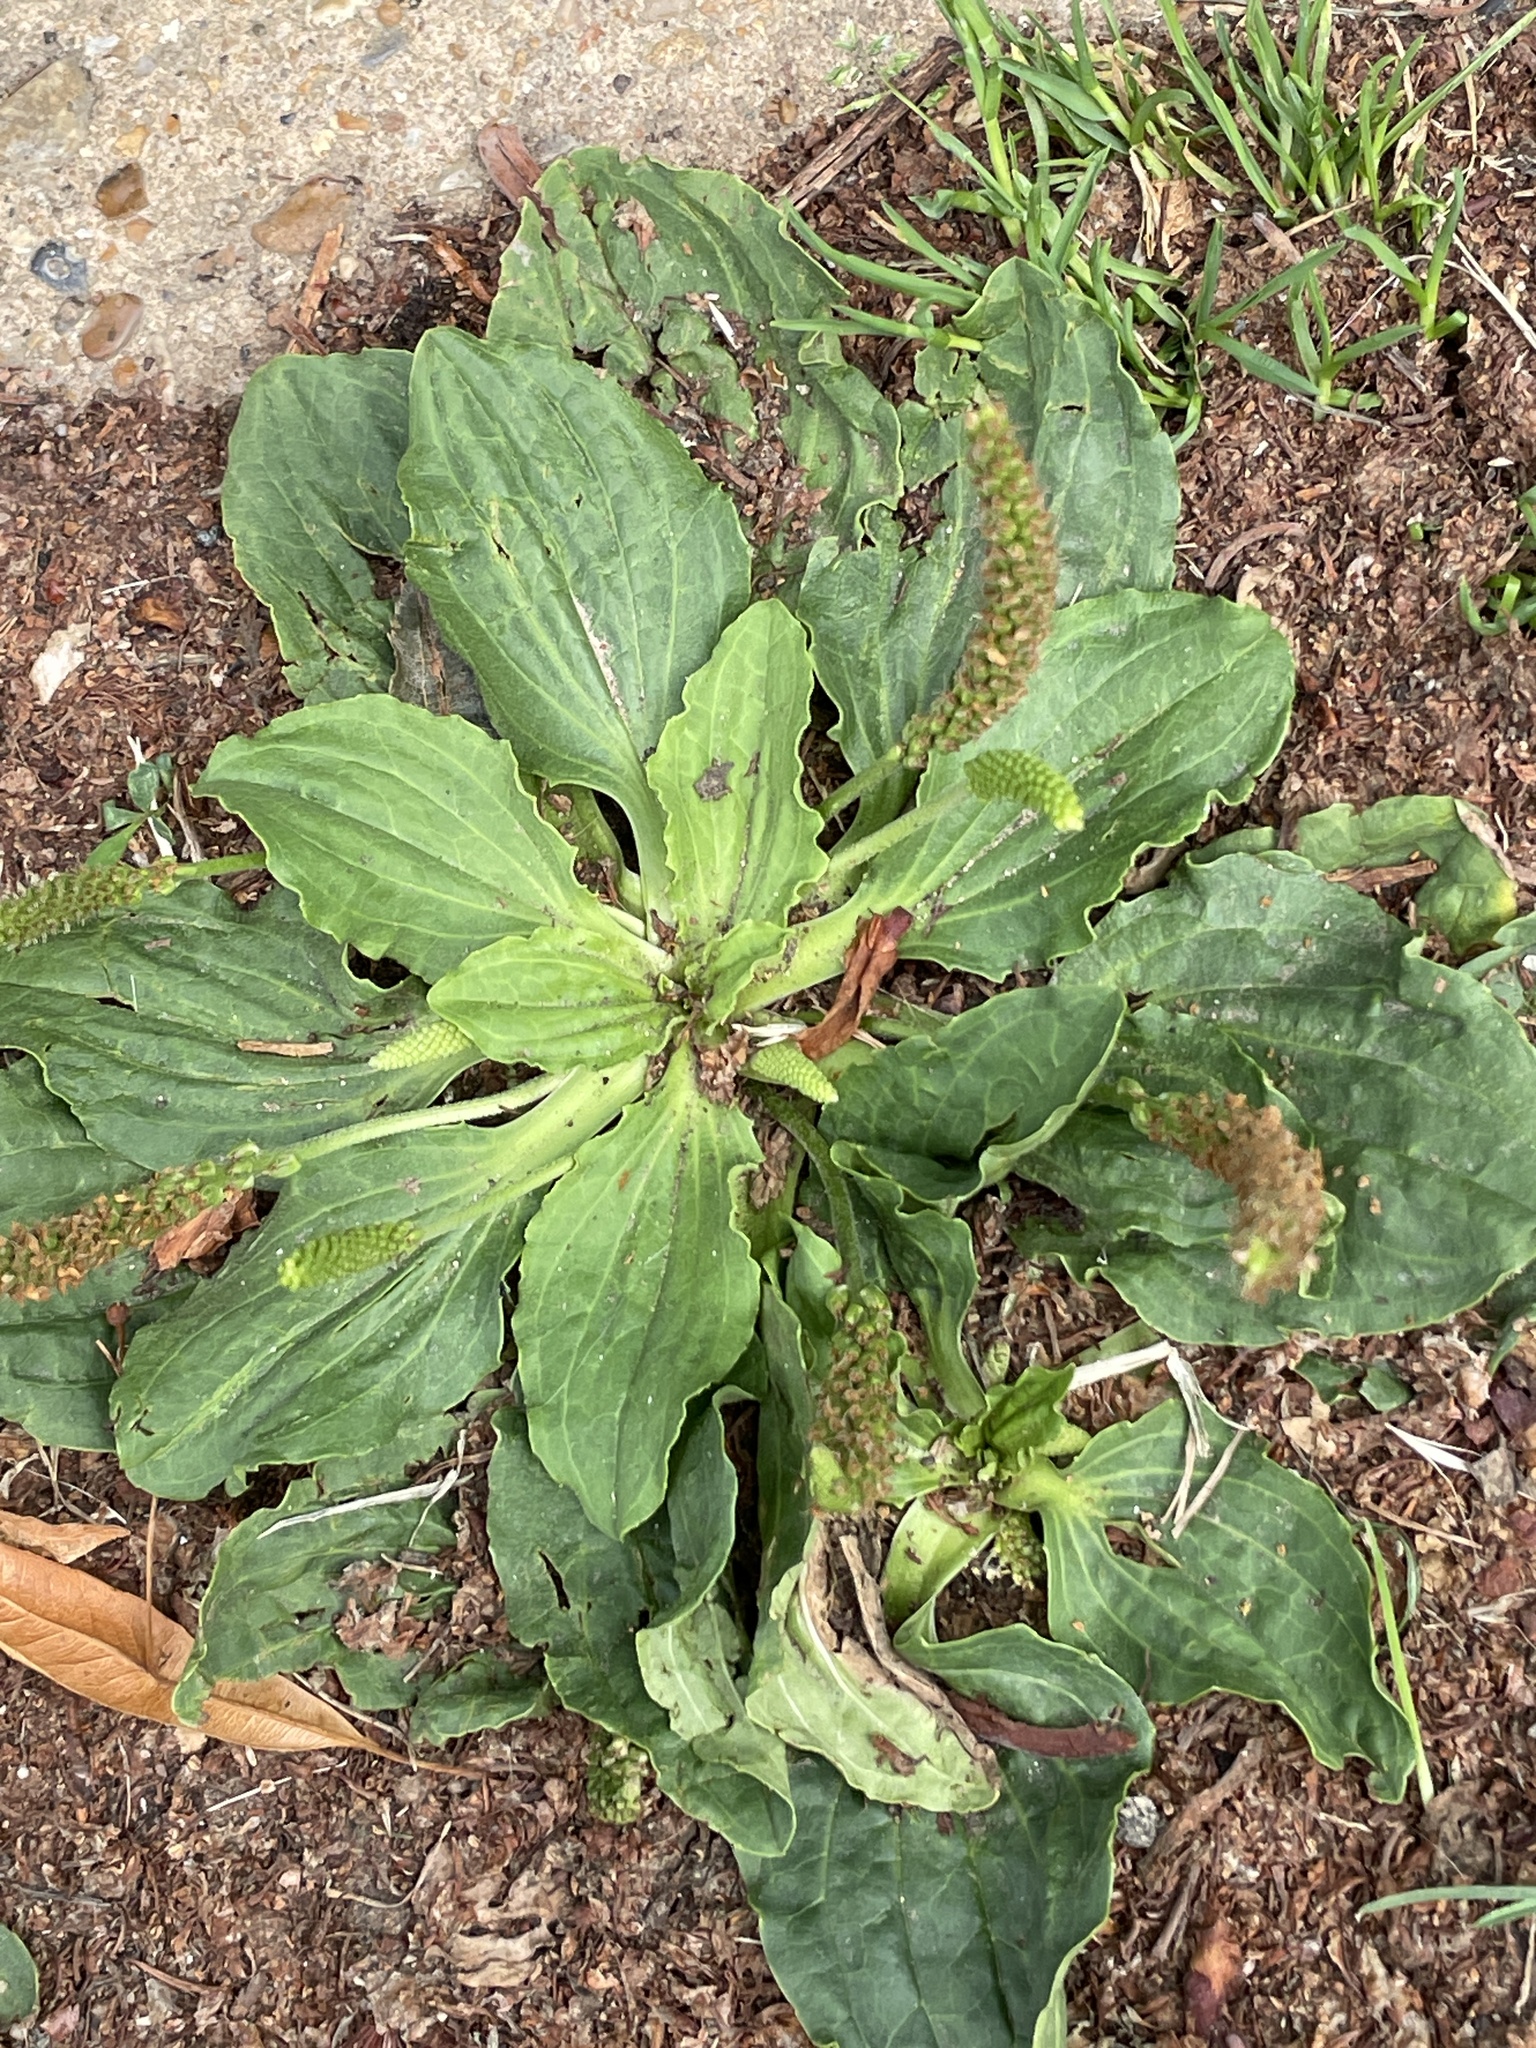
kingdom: Plantae
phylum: Tracheophyta
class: Magnoliopsida
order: Lamiales
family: Plantaginaceae
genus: Plantago
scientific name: Plantago major
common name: Common plantain
